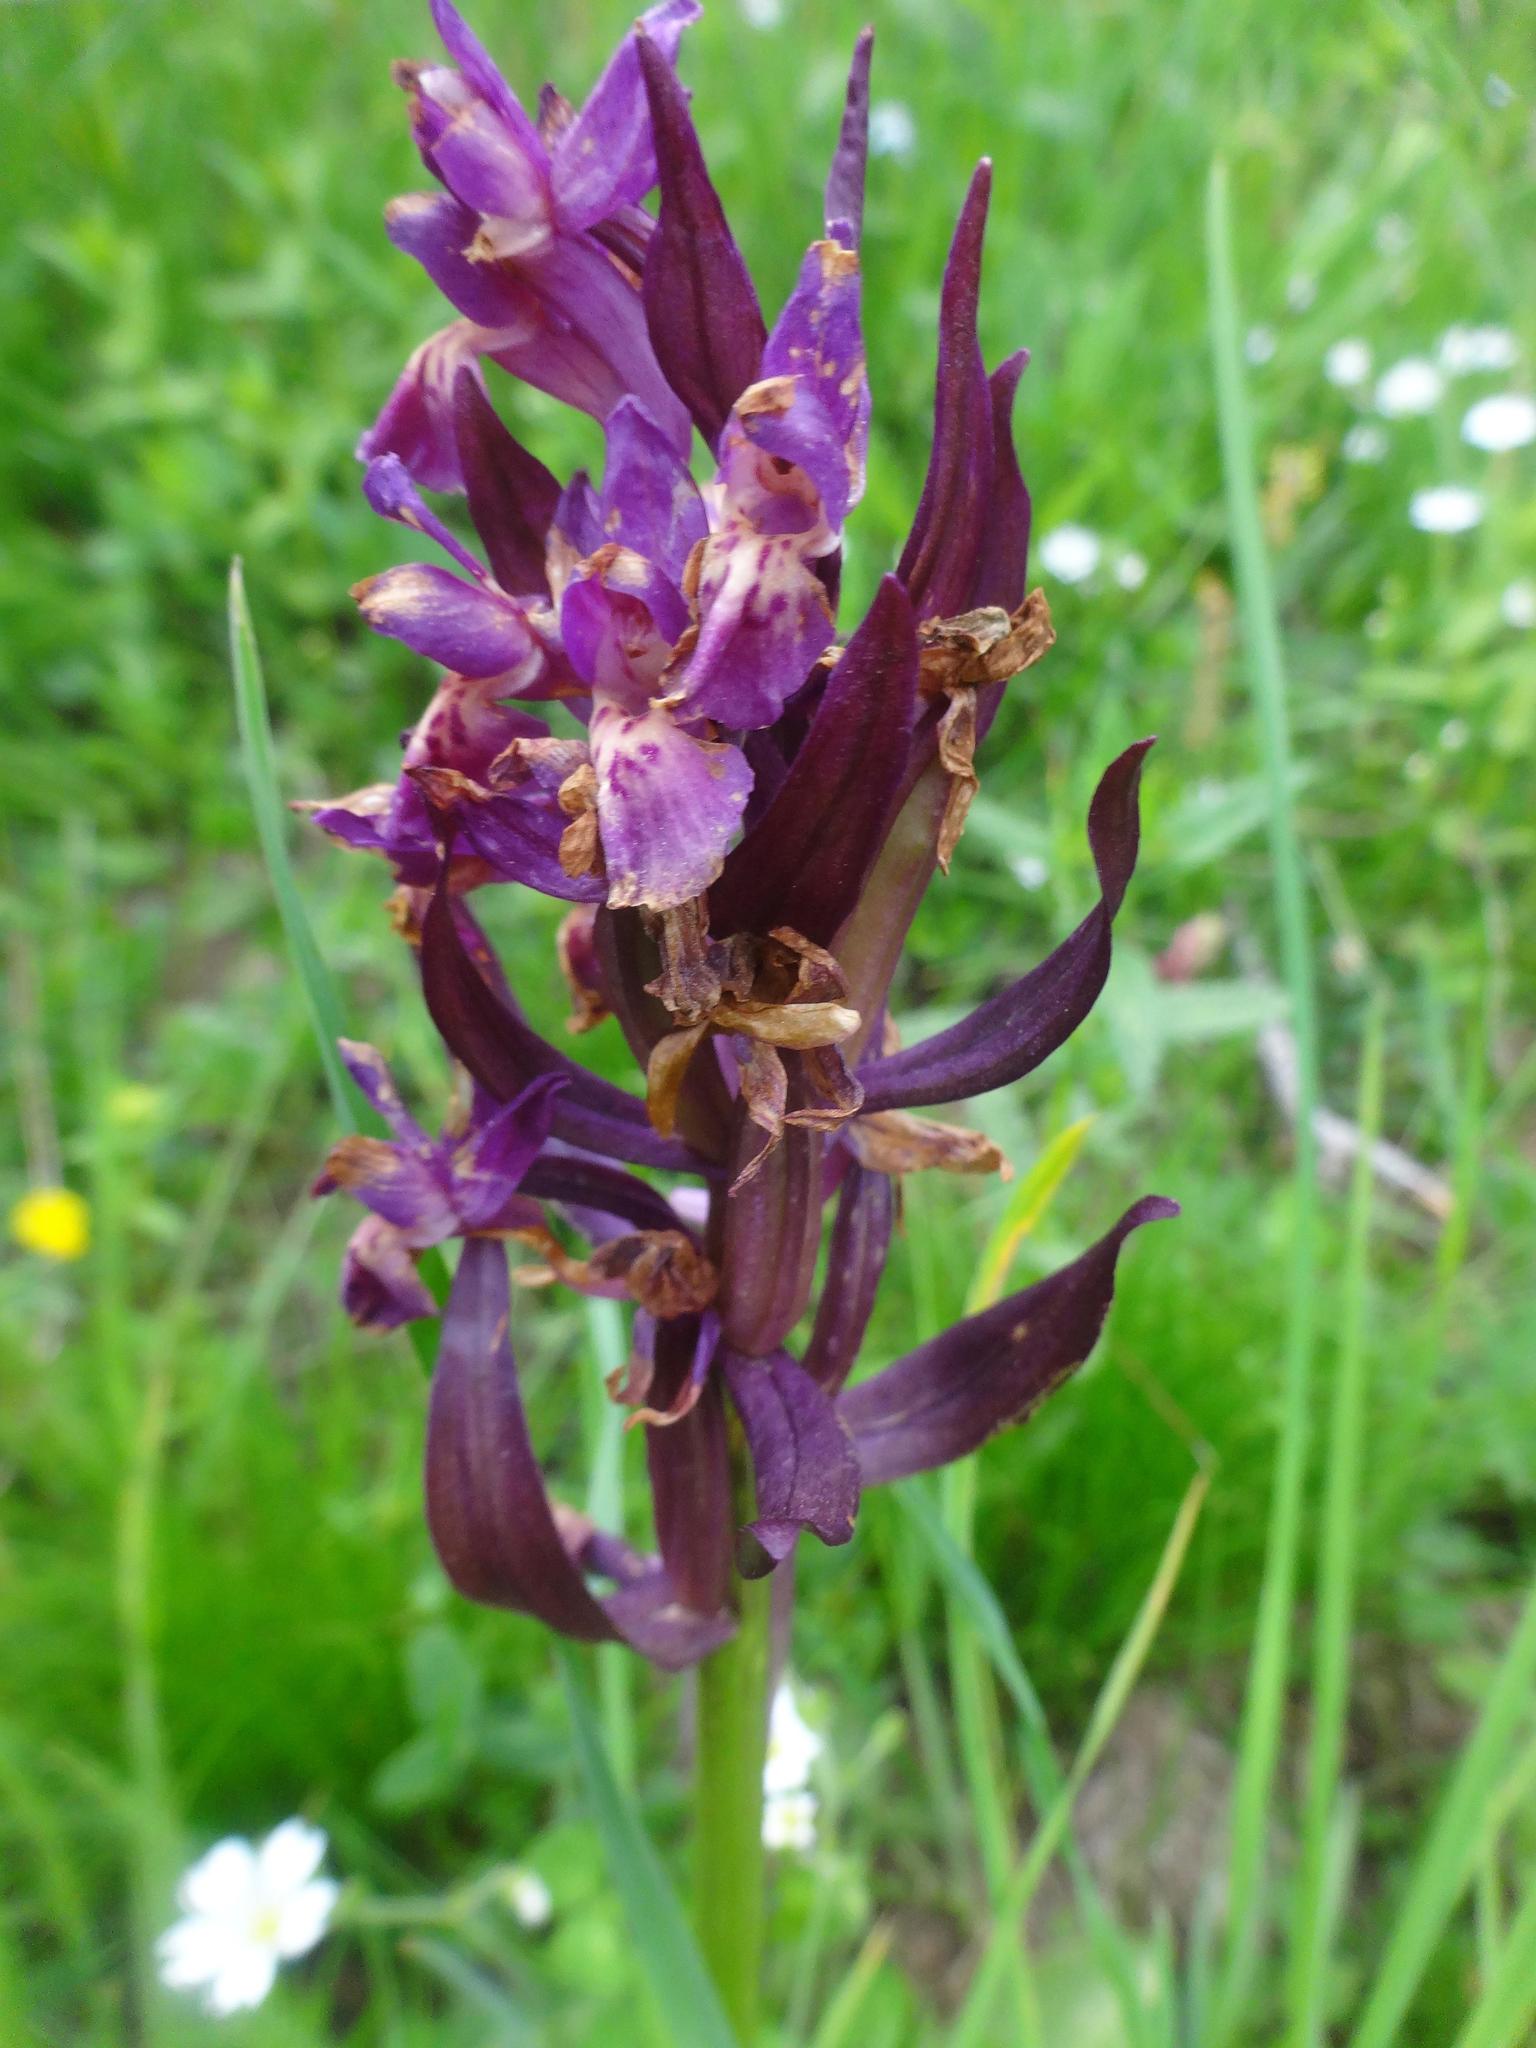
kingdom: Plantae
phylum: Tracheophyta
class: Liliopsida
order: Asparagales
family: Orchidaceae
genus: Dactylorhiza
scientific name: Dactylorhiza sambucina
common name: Elder-flowered orchid
